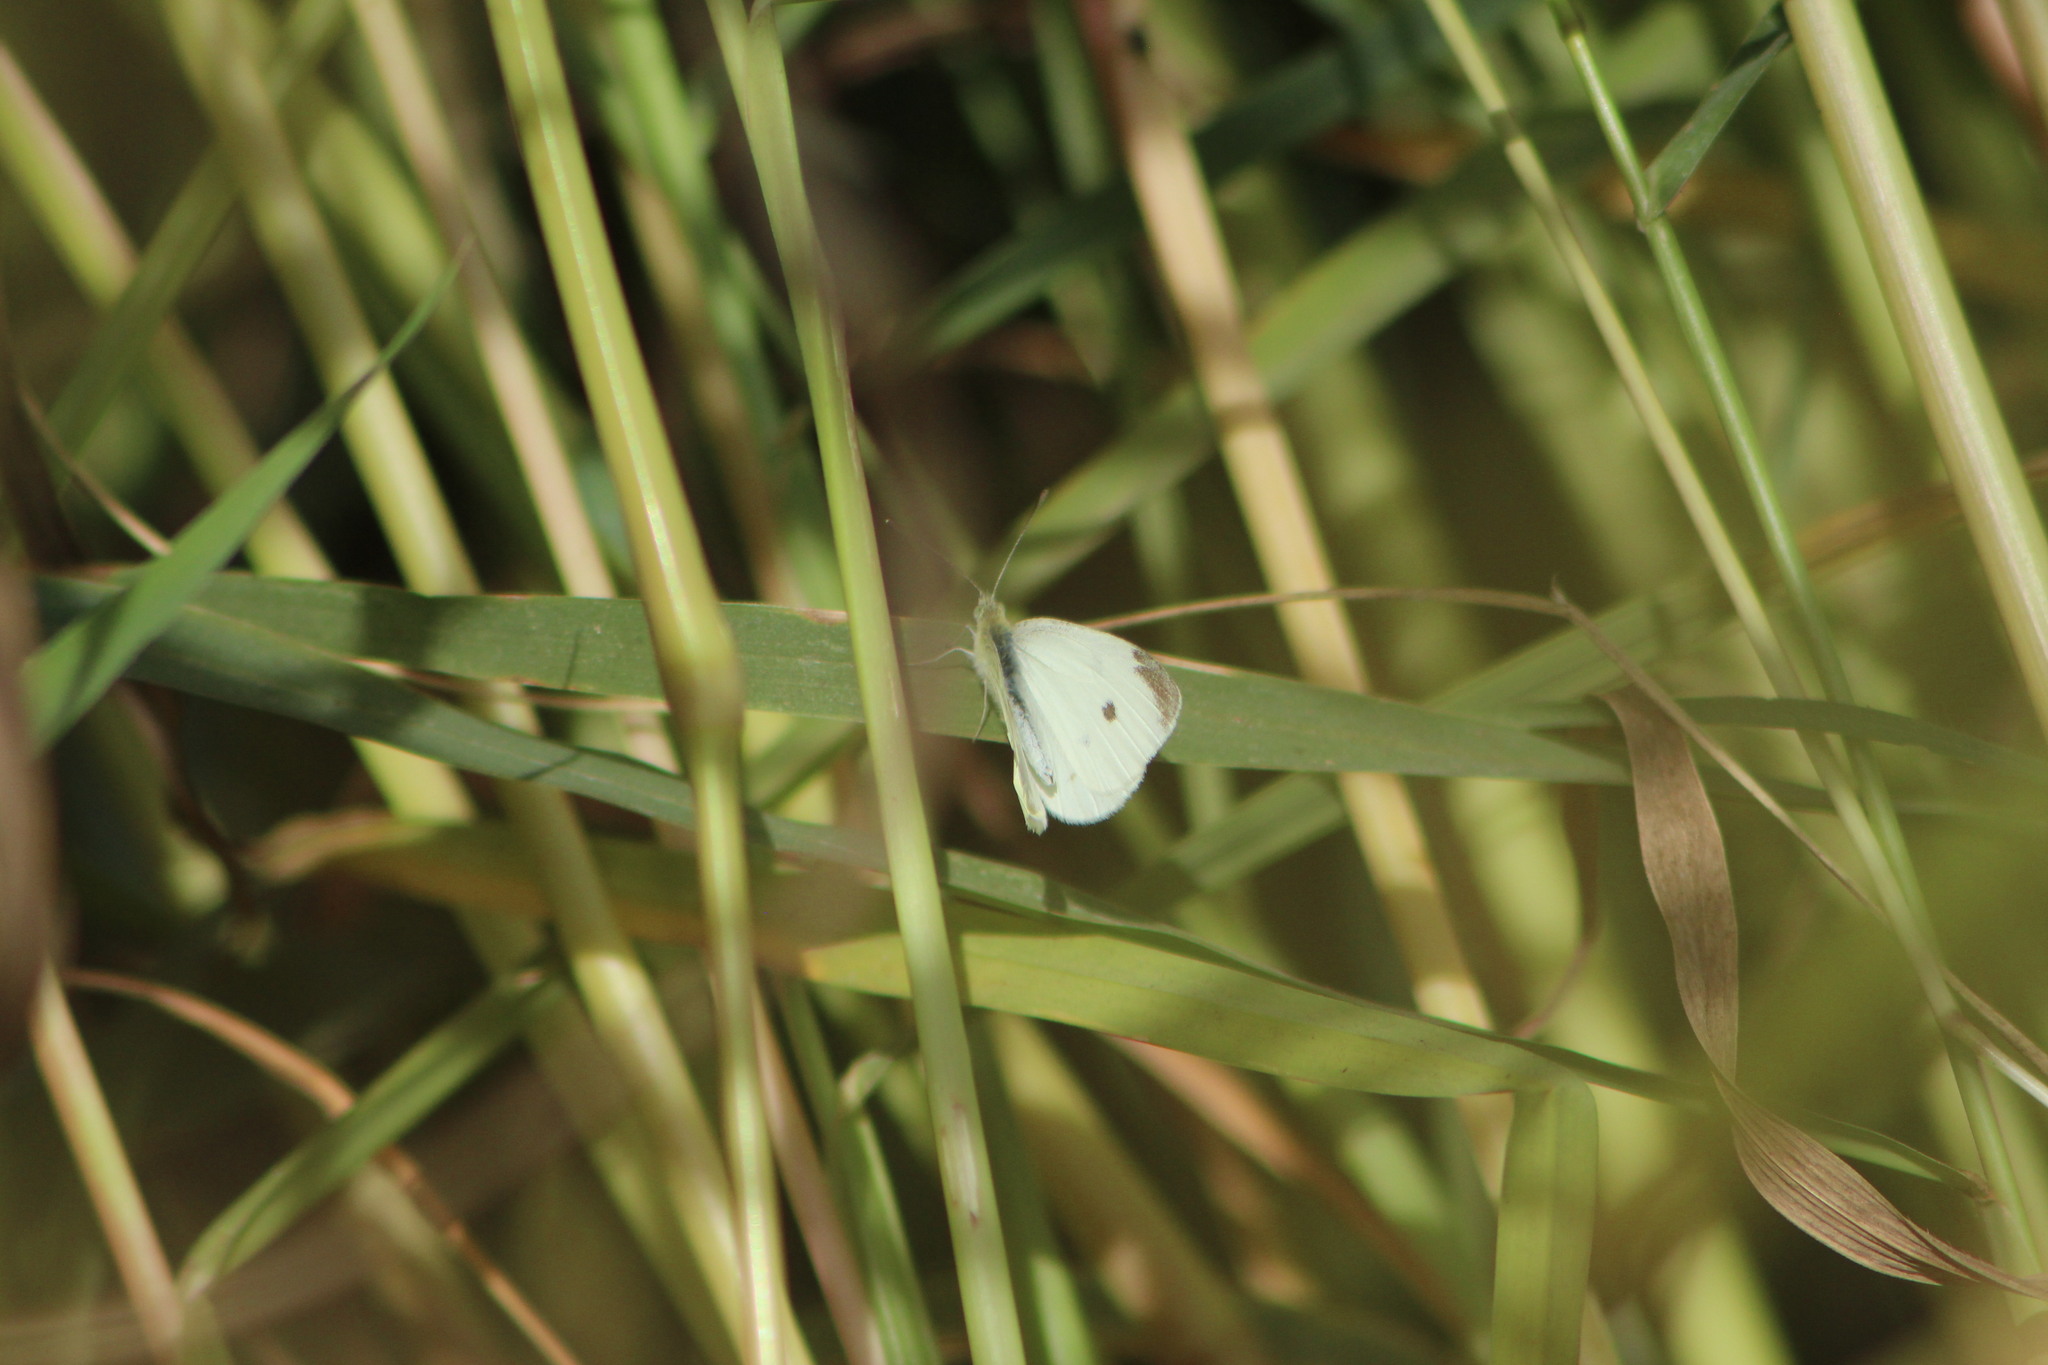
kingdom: Animalia
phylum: Arthropoda
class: Insecta
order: Lepidoptera
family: Pieridae
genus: Pieris
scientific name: Pieris rapae
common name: Small white
